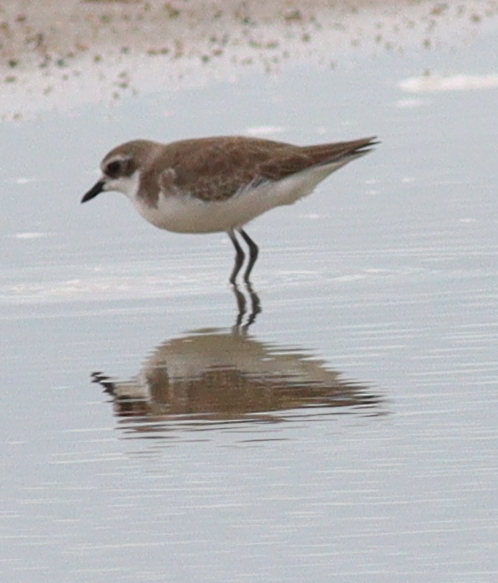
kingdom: Animalia
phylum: Chordata
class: Aves
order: Charadriiformes
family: Charadriidae
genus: Anarhynchus
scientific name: Anarhynchus
